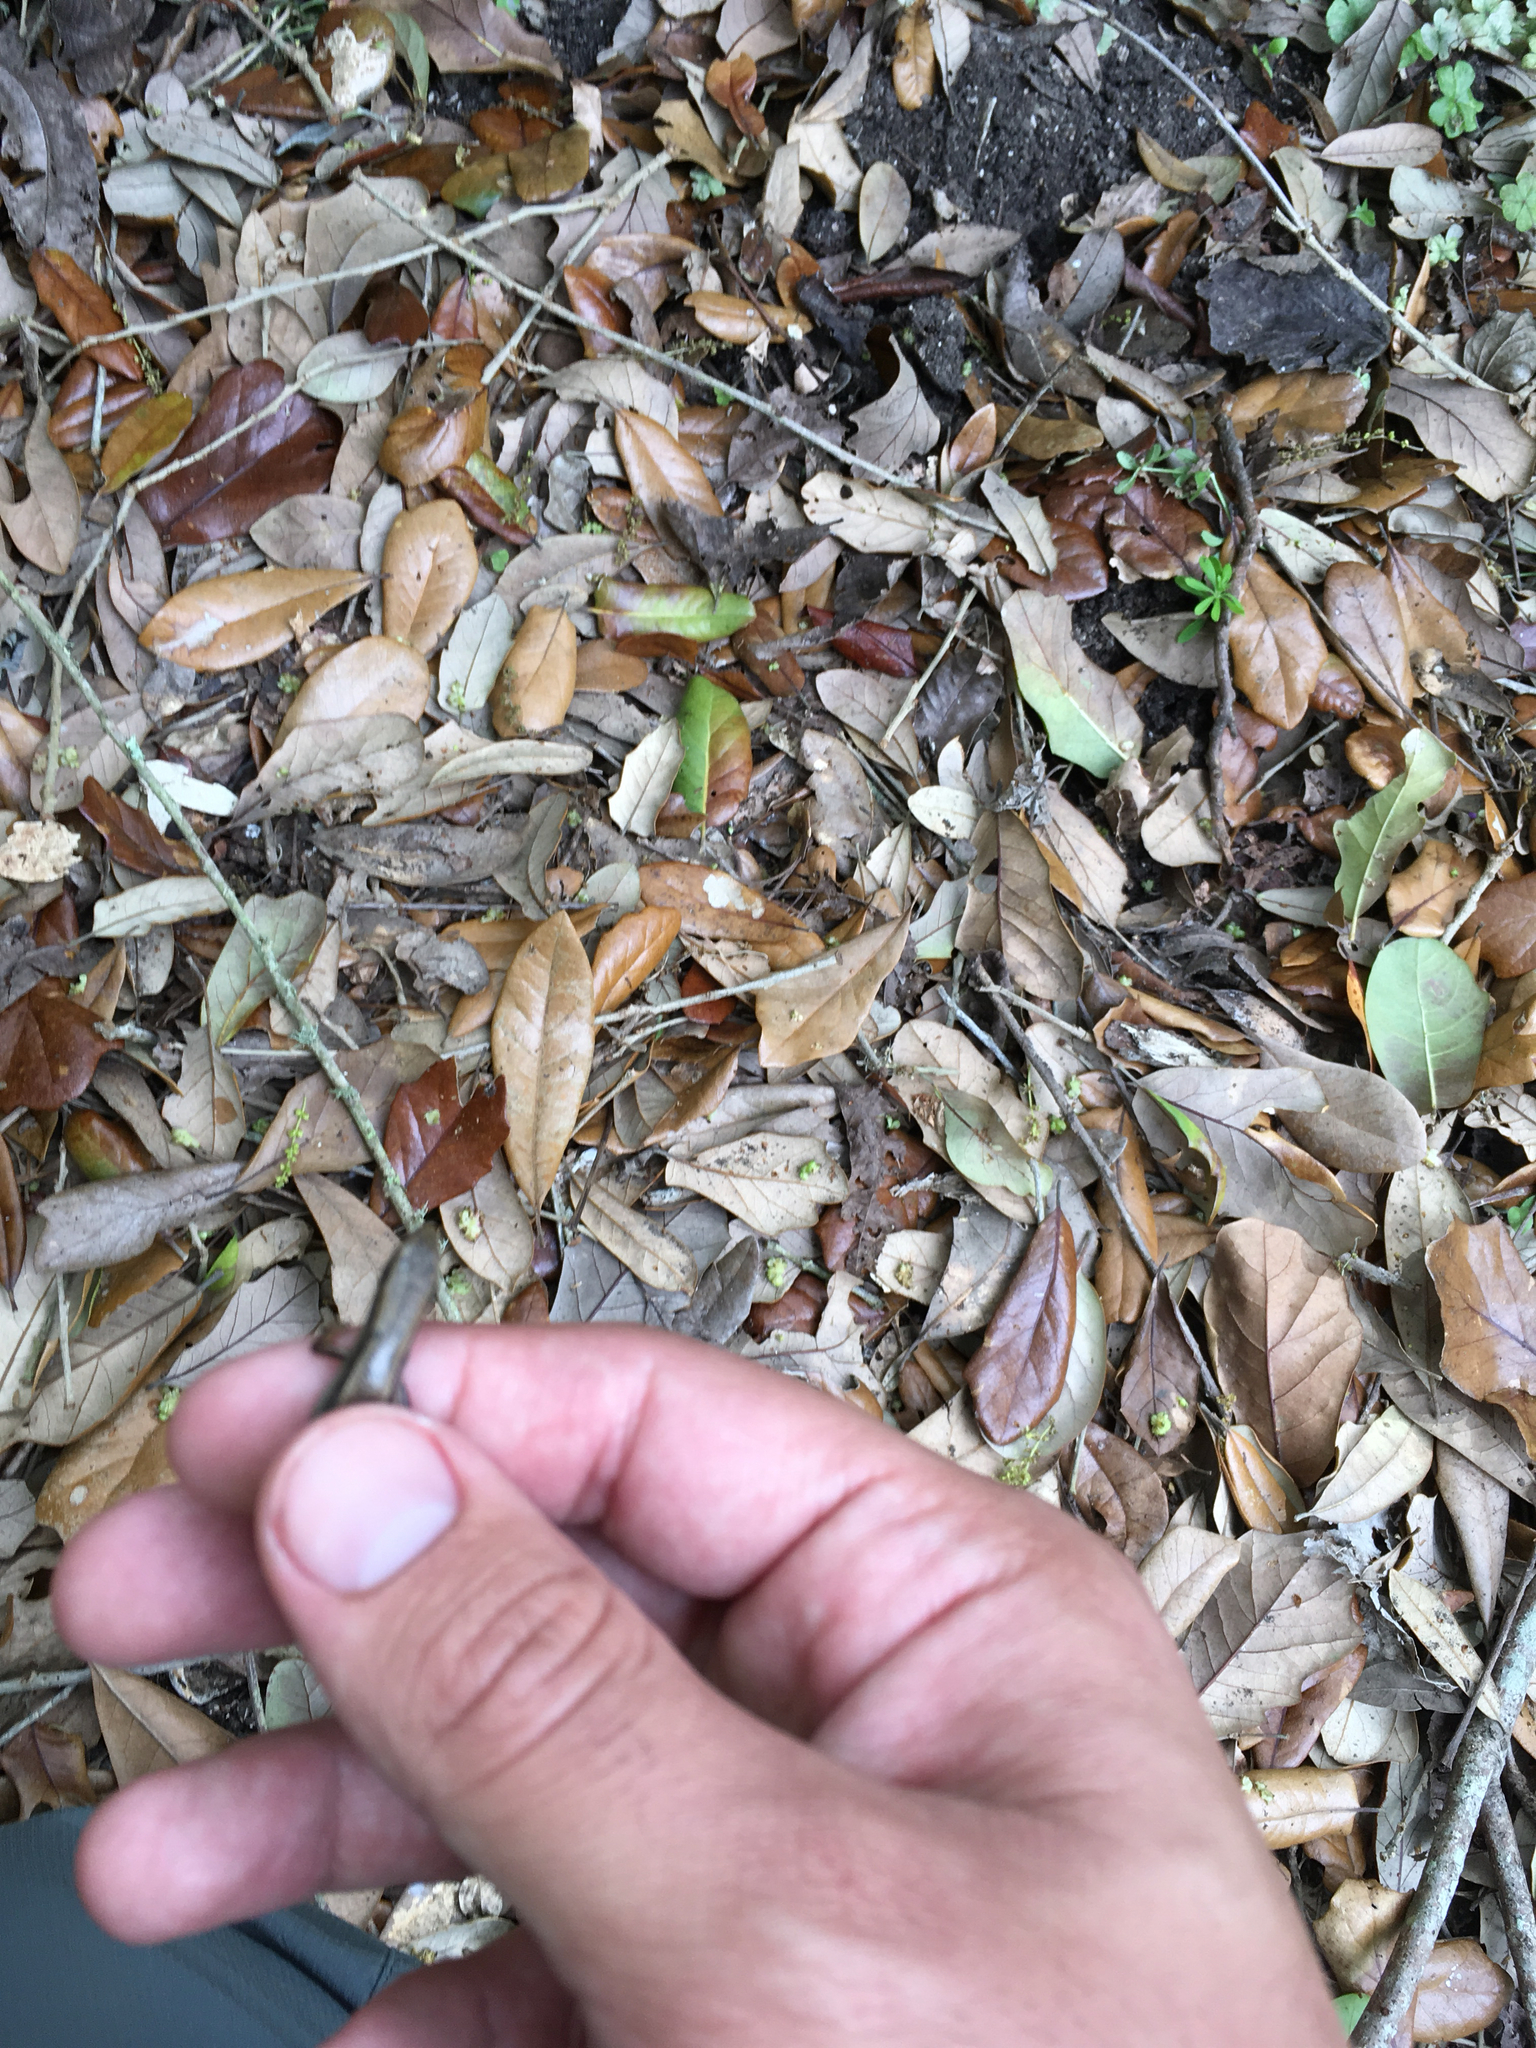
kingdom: Animalia
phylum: Chordata
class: Squamata
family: Scincidae
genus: Scincella
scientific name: Scincella lateralis
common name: Ground skink
